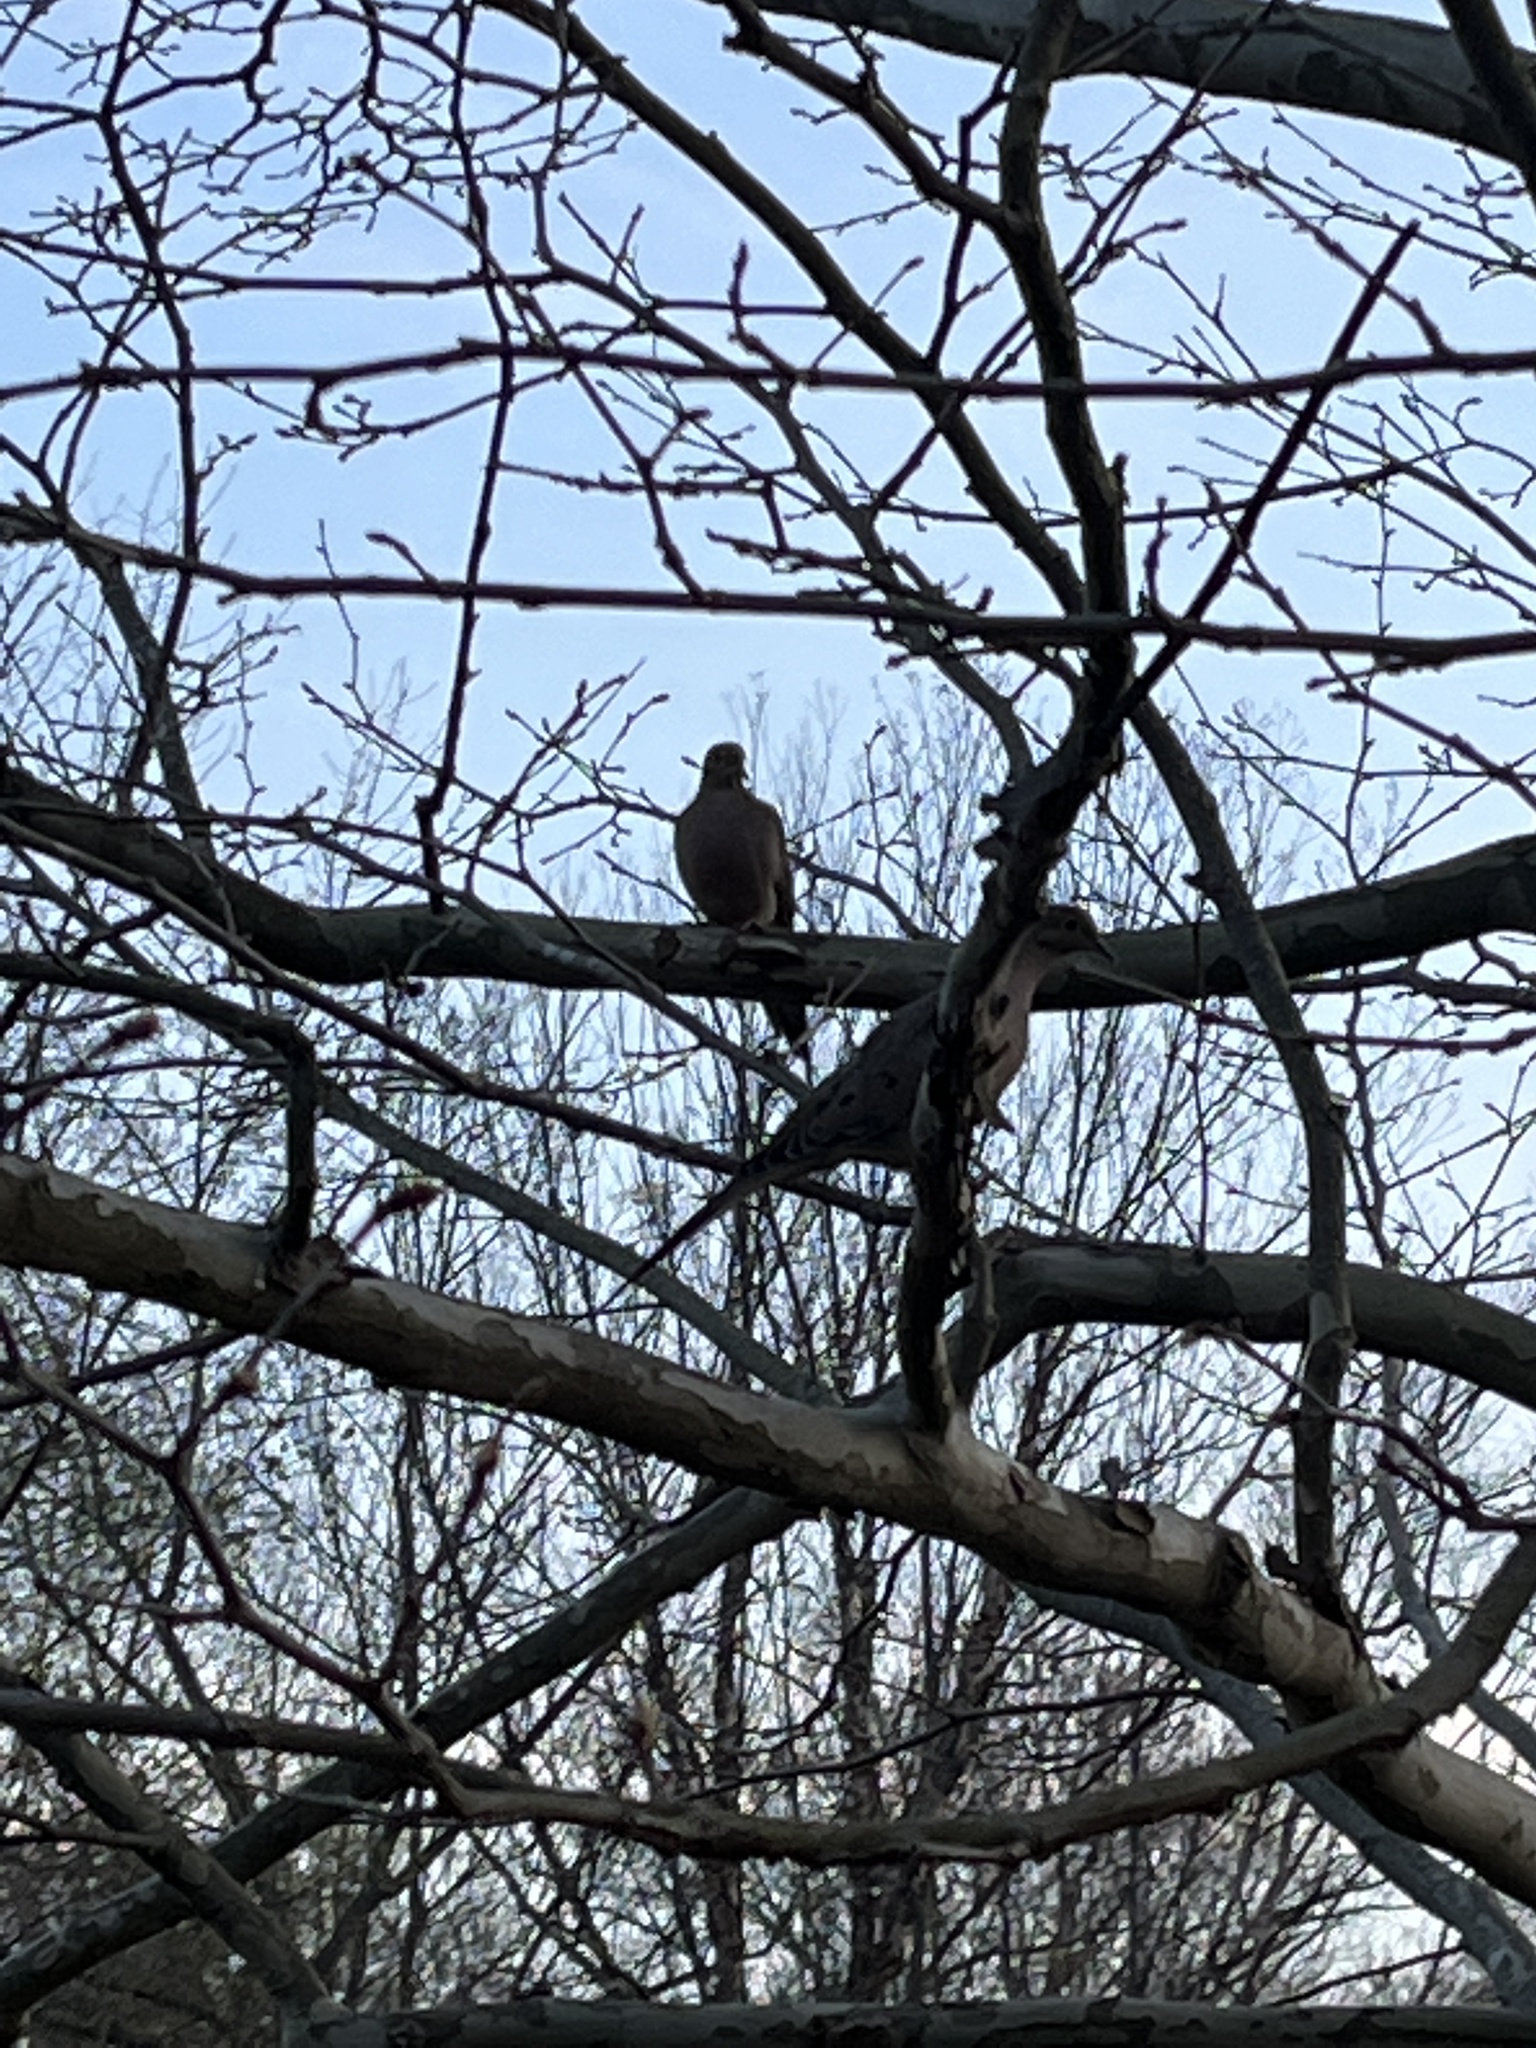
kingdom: Animalia
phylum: Chordata
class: Aves
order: Columbiformes
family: Columbidae
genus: Zenaida
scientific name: Zenaida macroura
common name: Mourning dove
